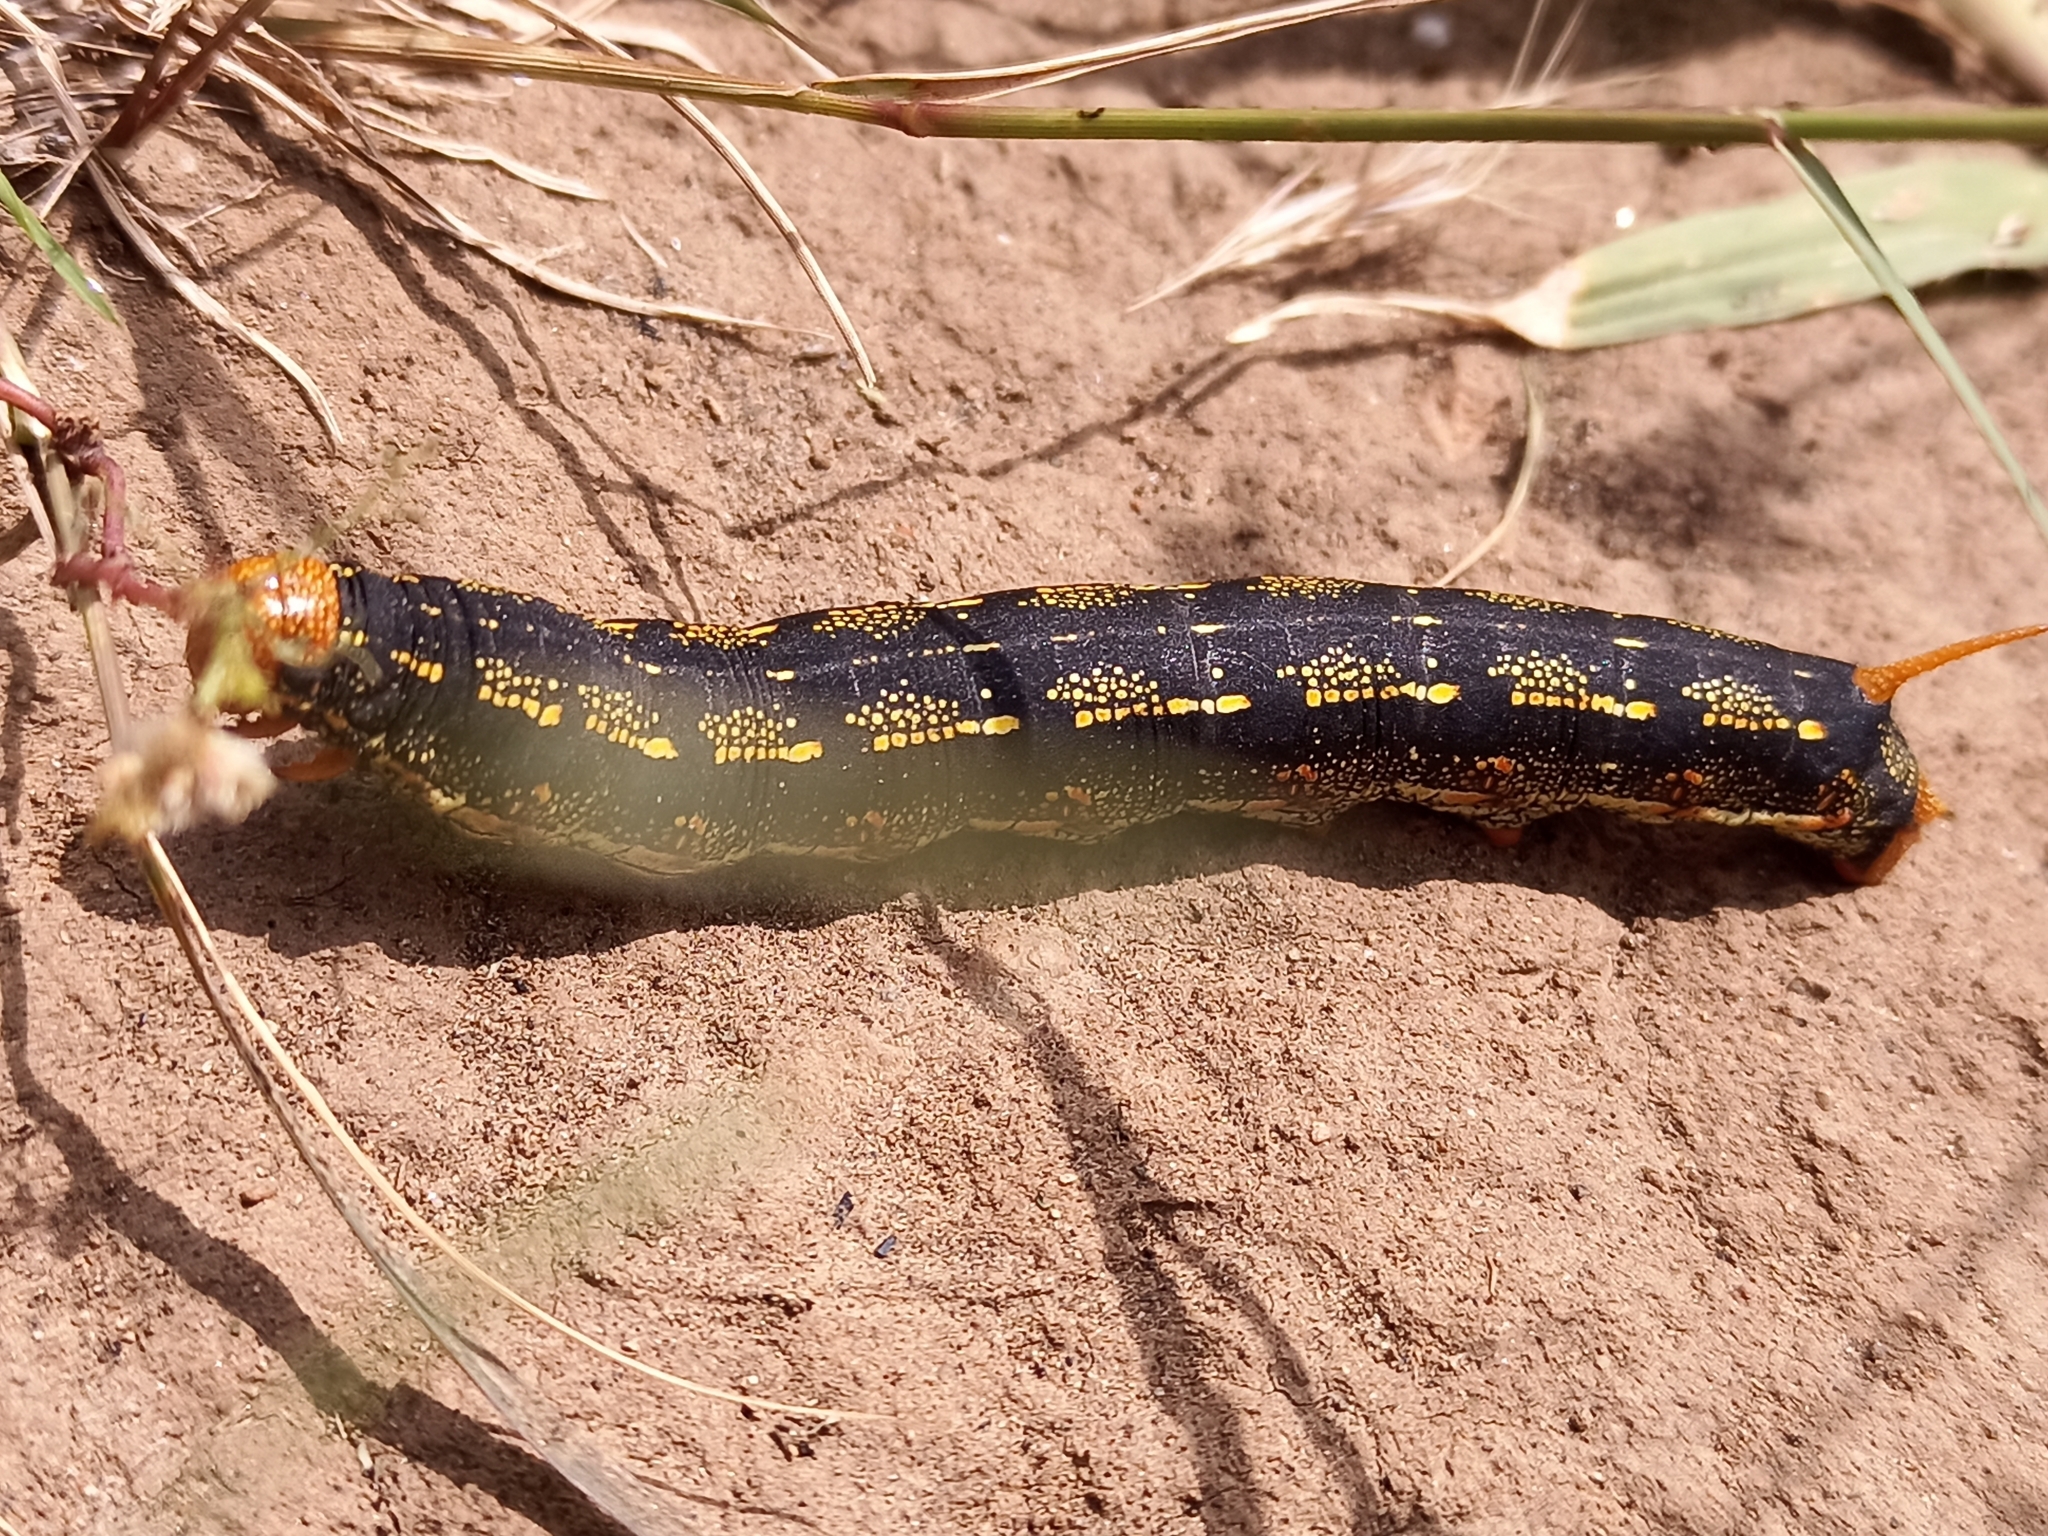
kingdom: Animalia
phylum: Arthropoda
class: Insecta
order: Lepidoptera
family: Sphingidae
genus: Hyles
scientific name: Hyles lineata
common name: White-lined sphinx
